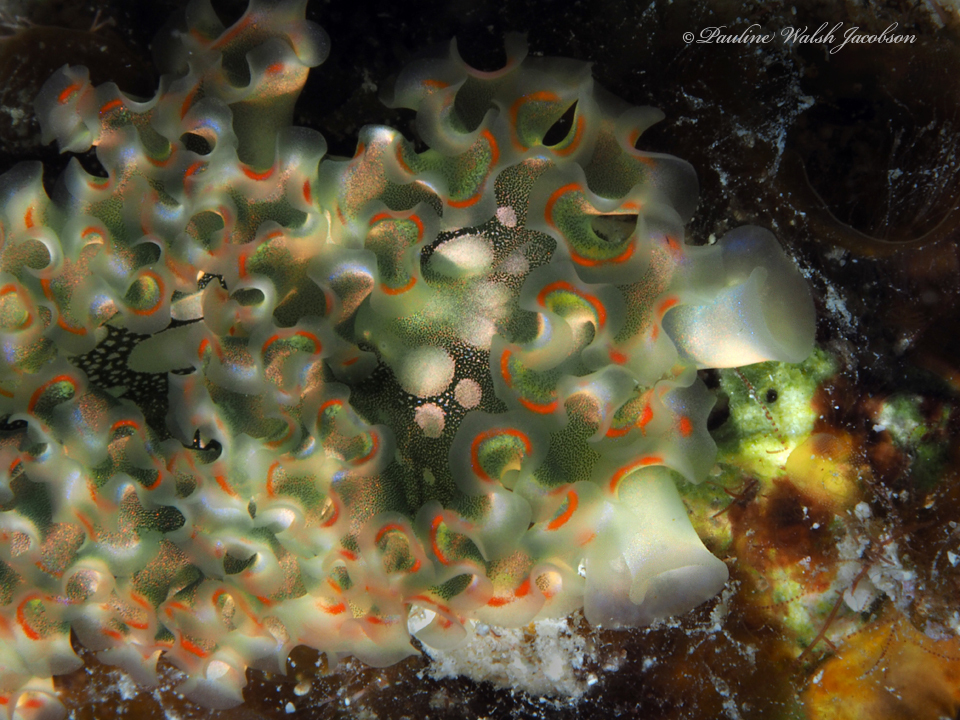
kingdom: Animalia
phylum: Mollusca
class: Gastropoda
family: Plakobranchidae
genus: Elysia
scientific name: Elysia crispata
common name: Lettuce slug
